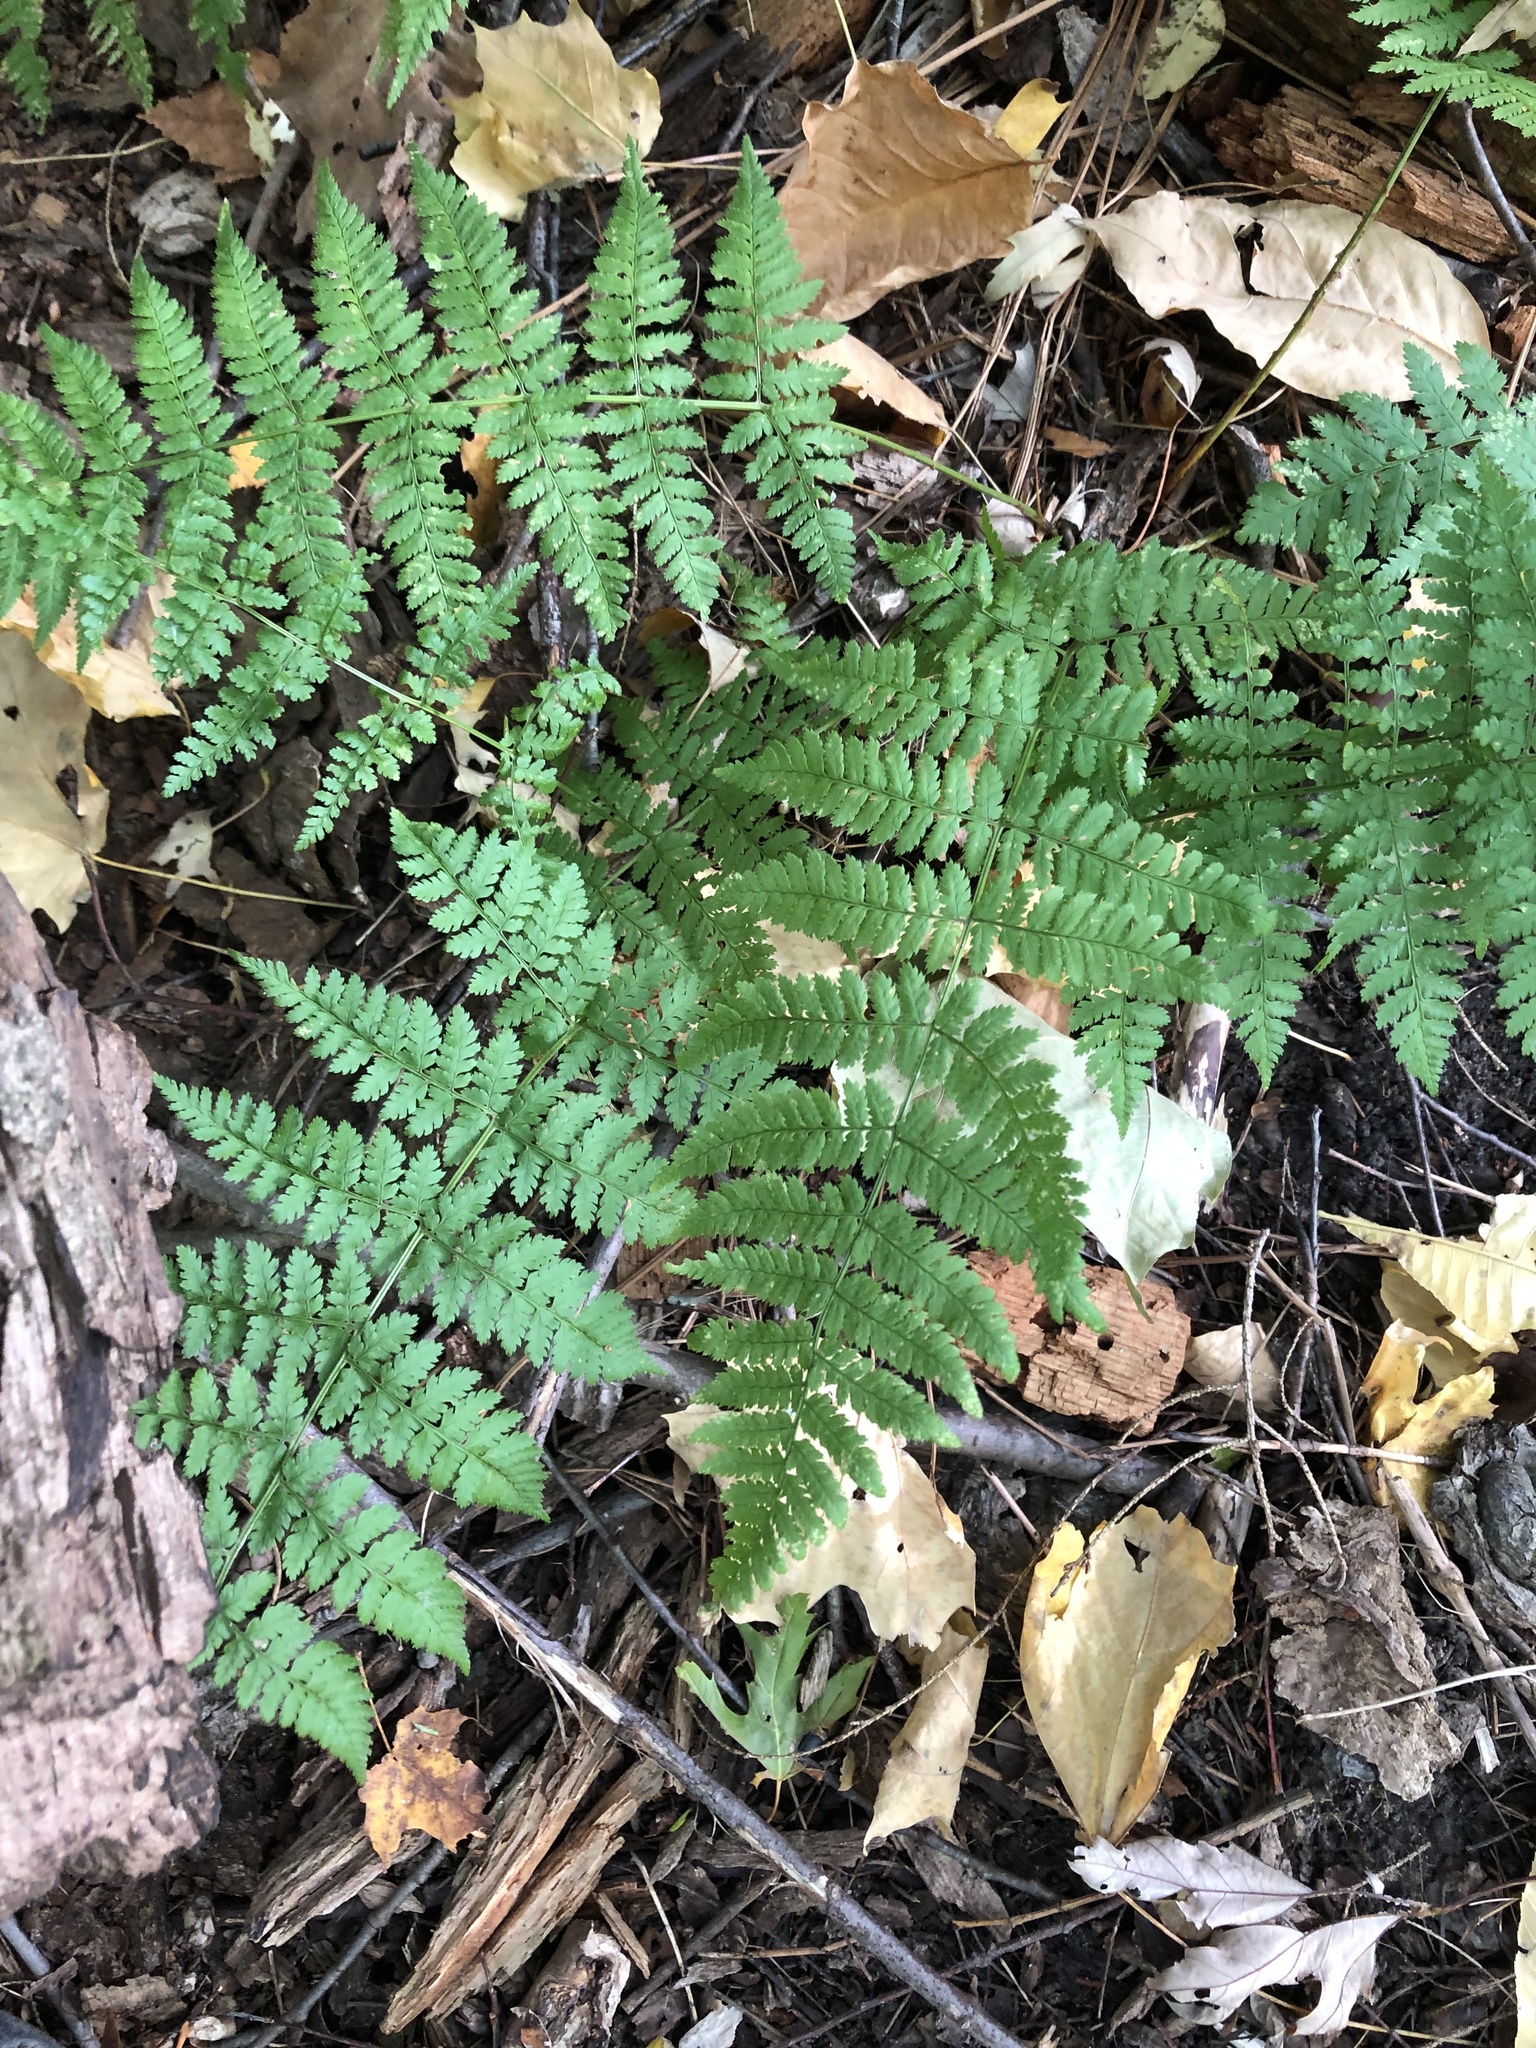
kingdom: Plantae
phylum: Tracheophyta
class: Polypodiopsida
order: Polypodiales
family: Dryopteridaceae
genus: Dryopteris
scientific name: Dryopteris intermedia
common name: Evergreen wood fern
